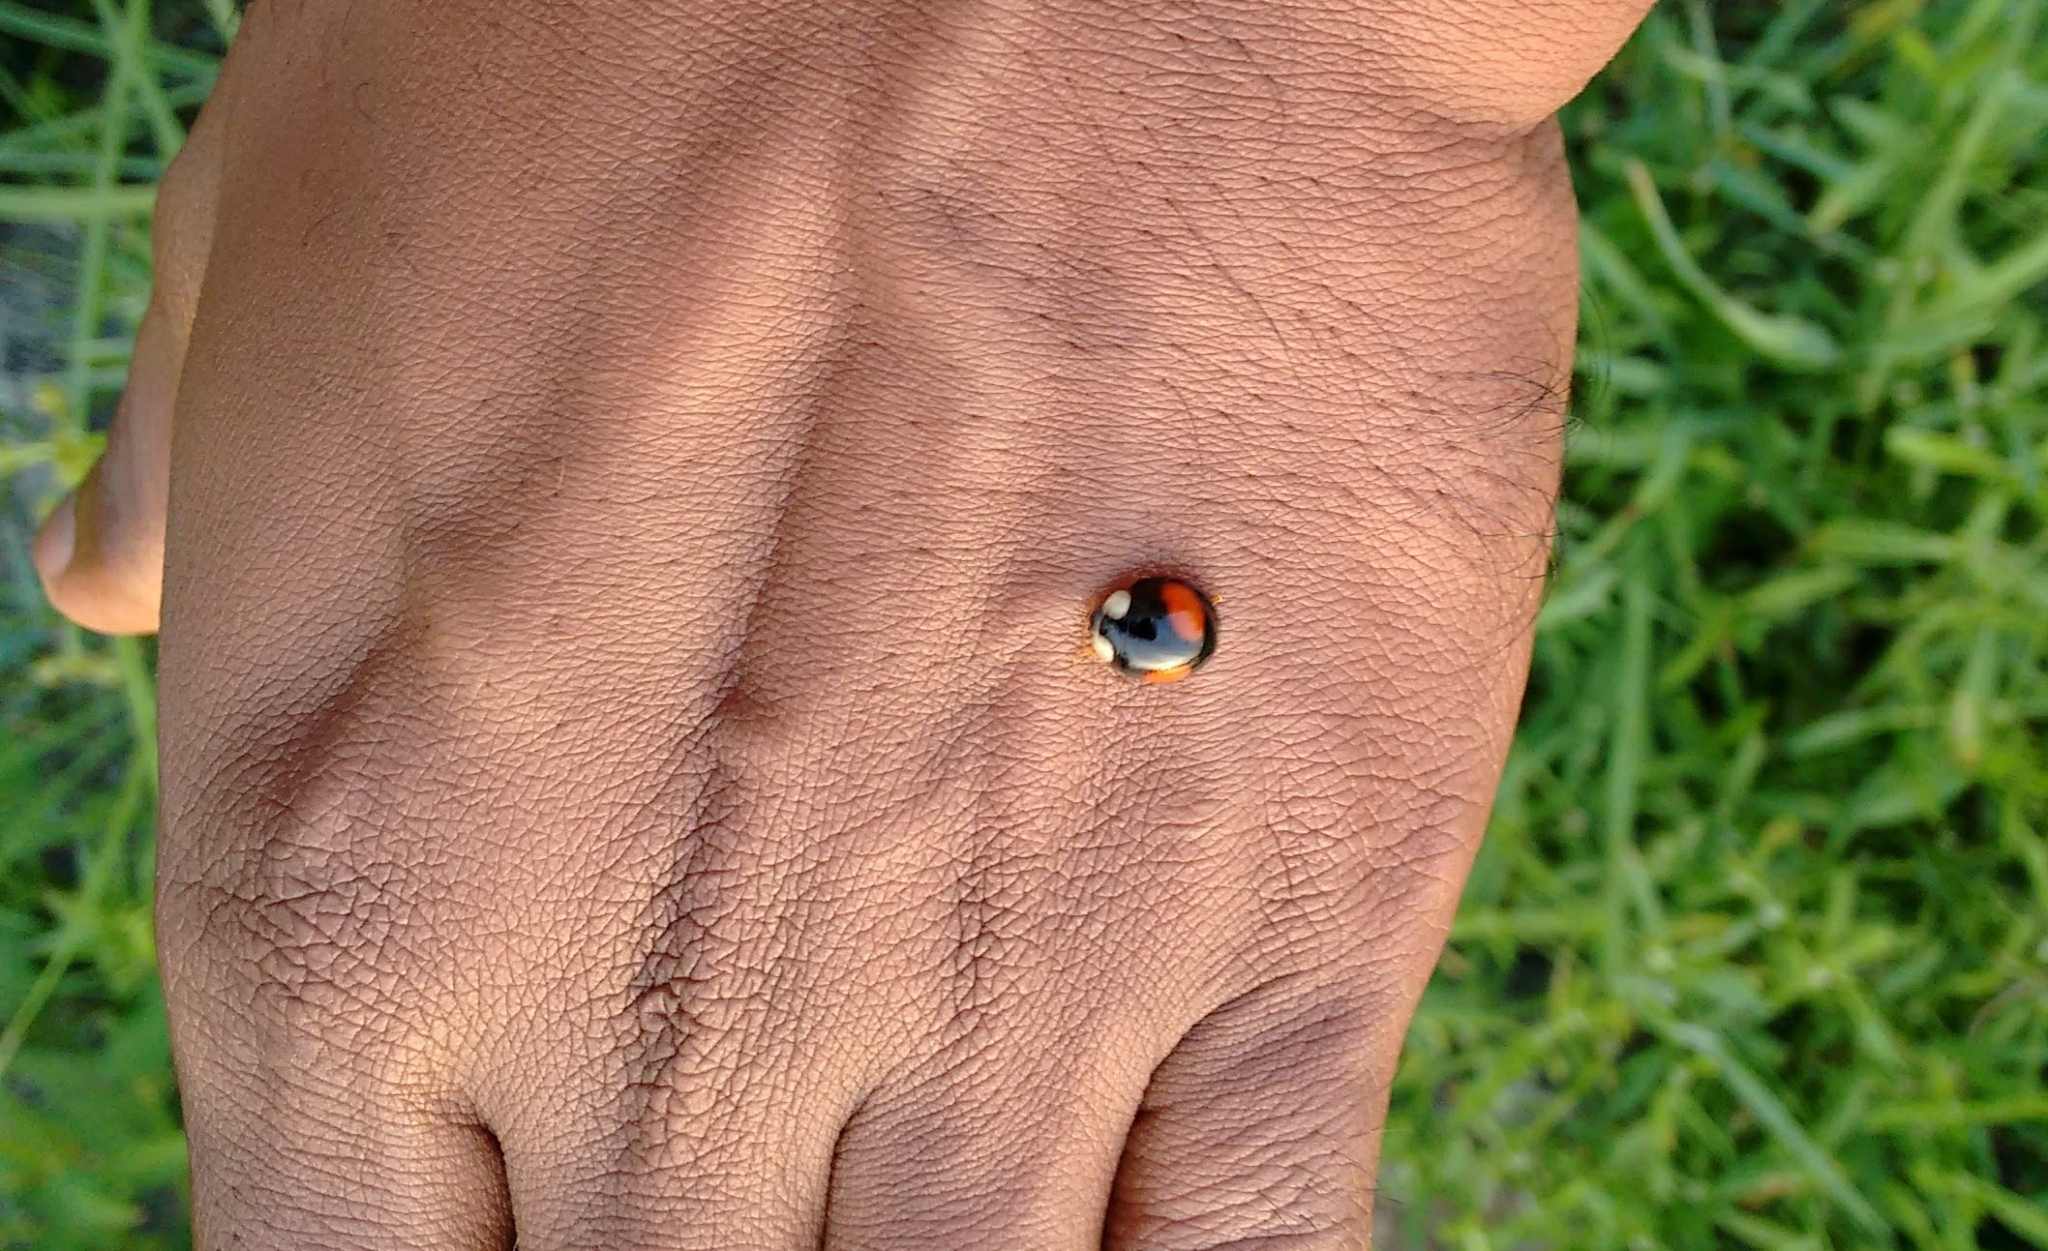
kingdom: Animalia
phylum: Arthropoda
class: Insecta
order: Coleoptera
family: Coccinellidae
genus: Coelophora
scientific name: Coelophora saucia
